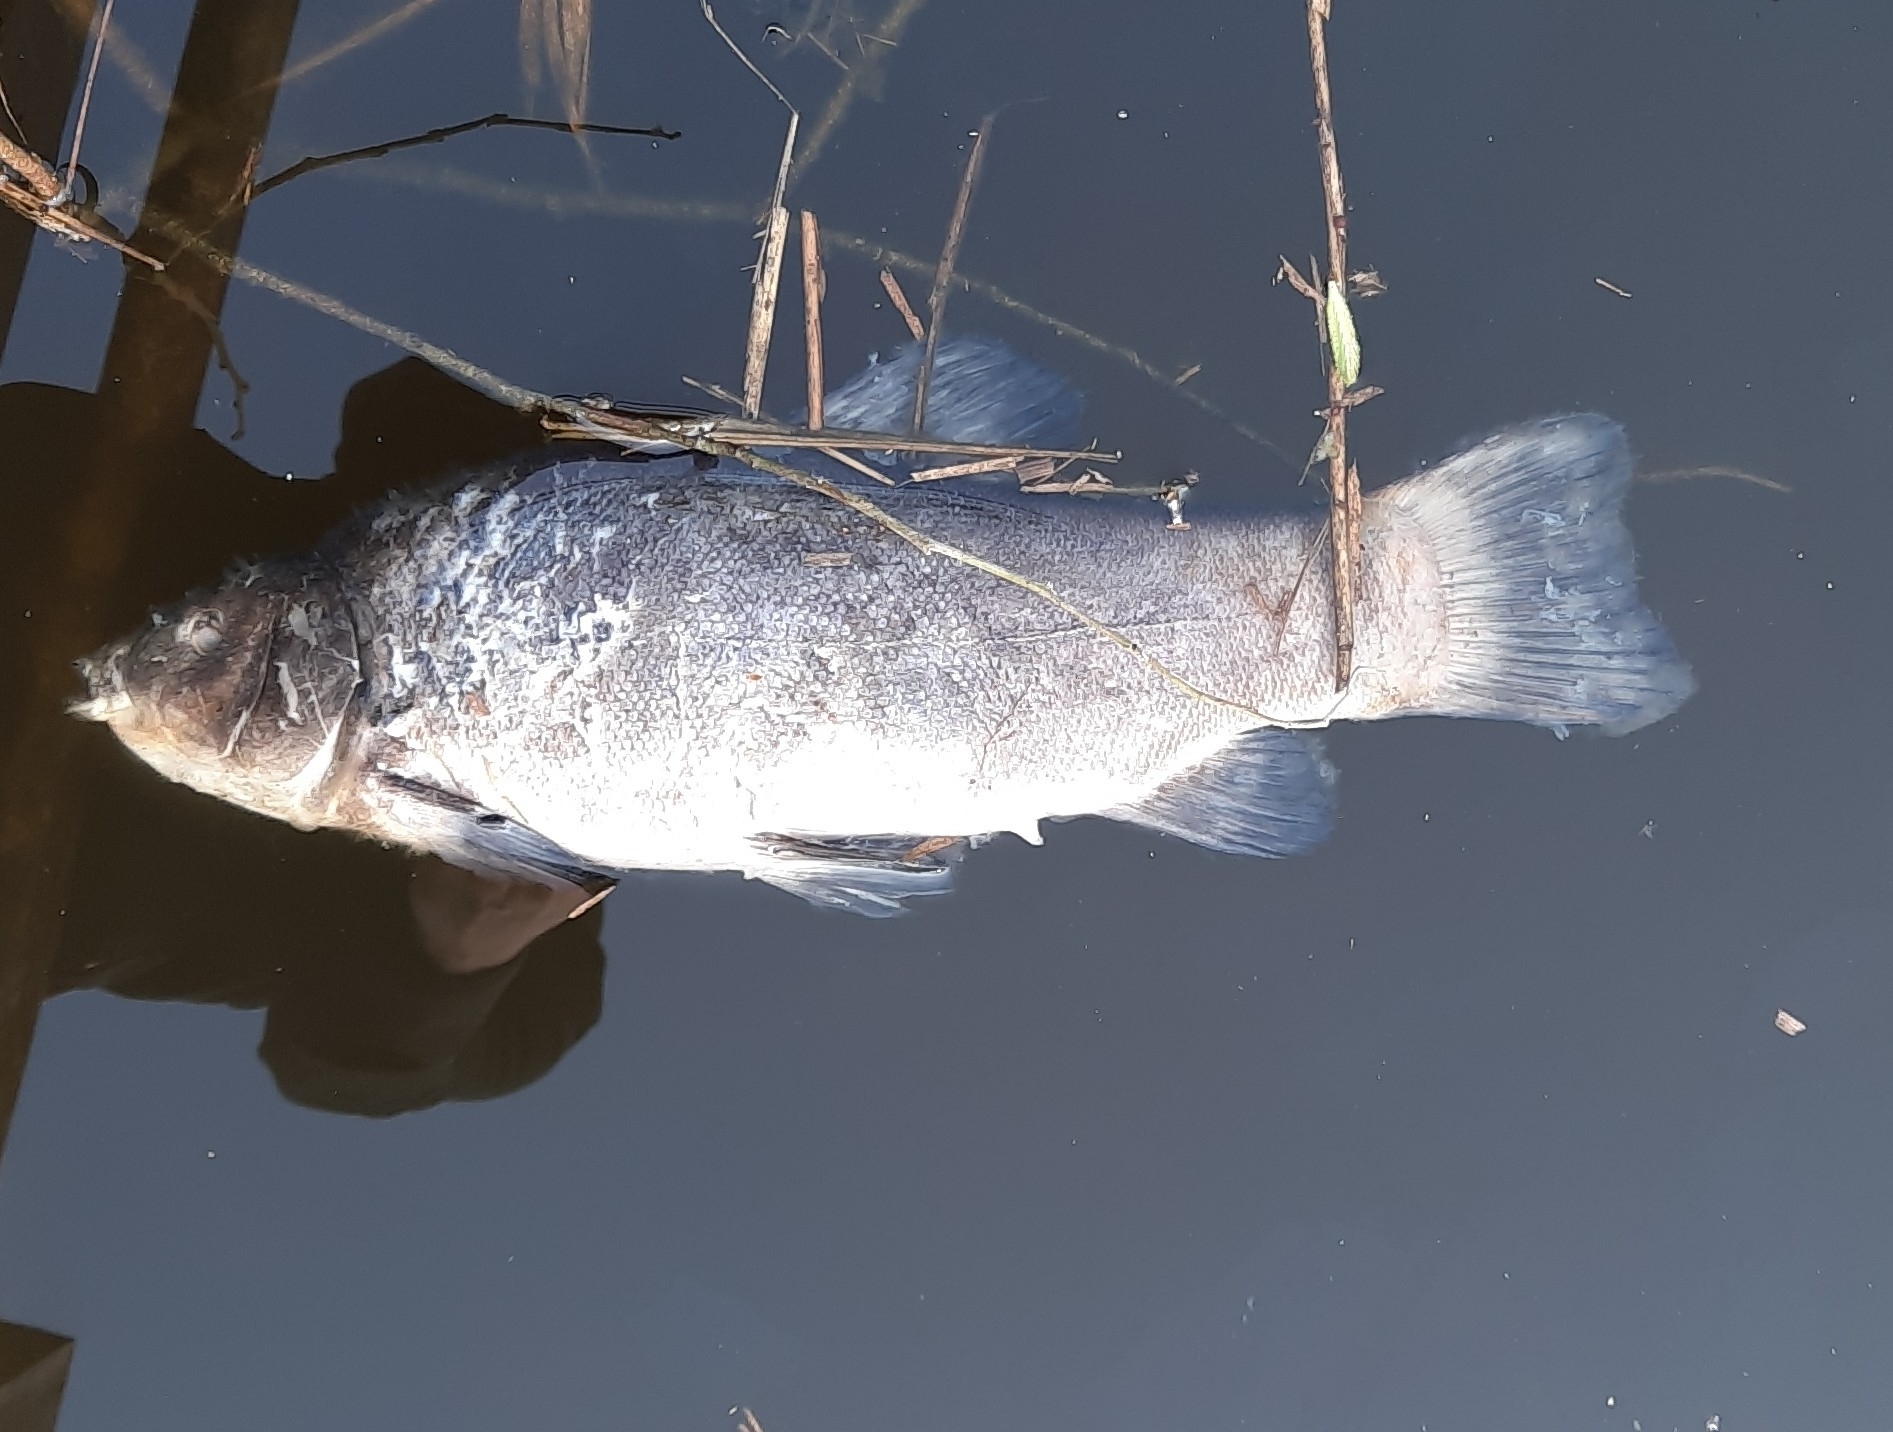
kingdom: Animalia
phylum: Chordata
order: Cypriniformes
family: Cyprinidae
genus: Tinca
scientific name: Tinca tinca
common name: Tench
